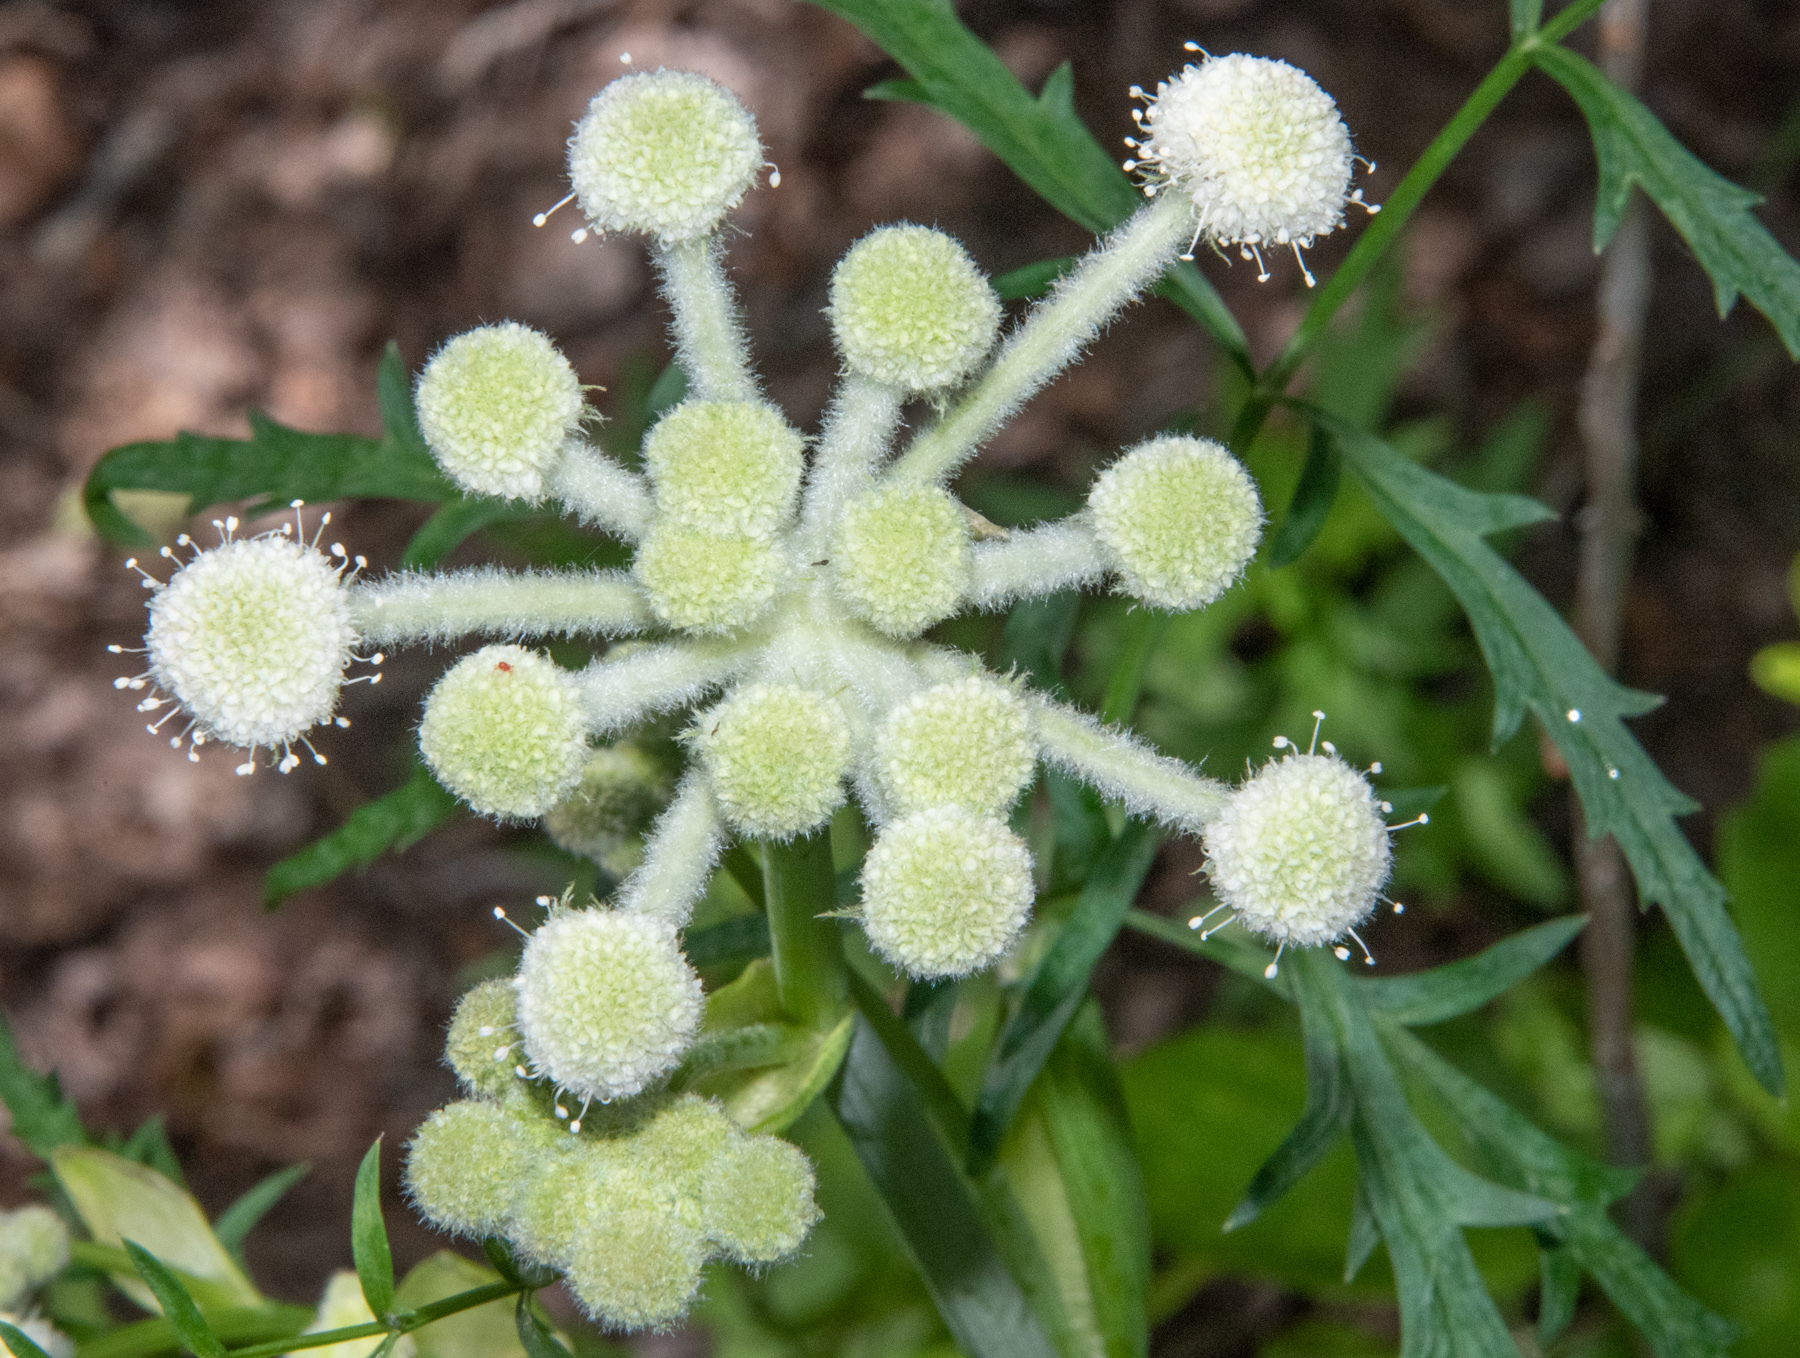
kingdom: Plantae
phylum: Tracheophyta
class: Magnoliopsida
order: Apiales
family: Apiaceae
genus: Angelica
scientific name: Angelica capitellata
